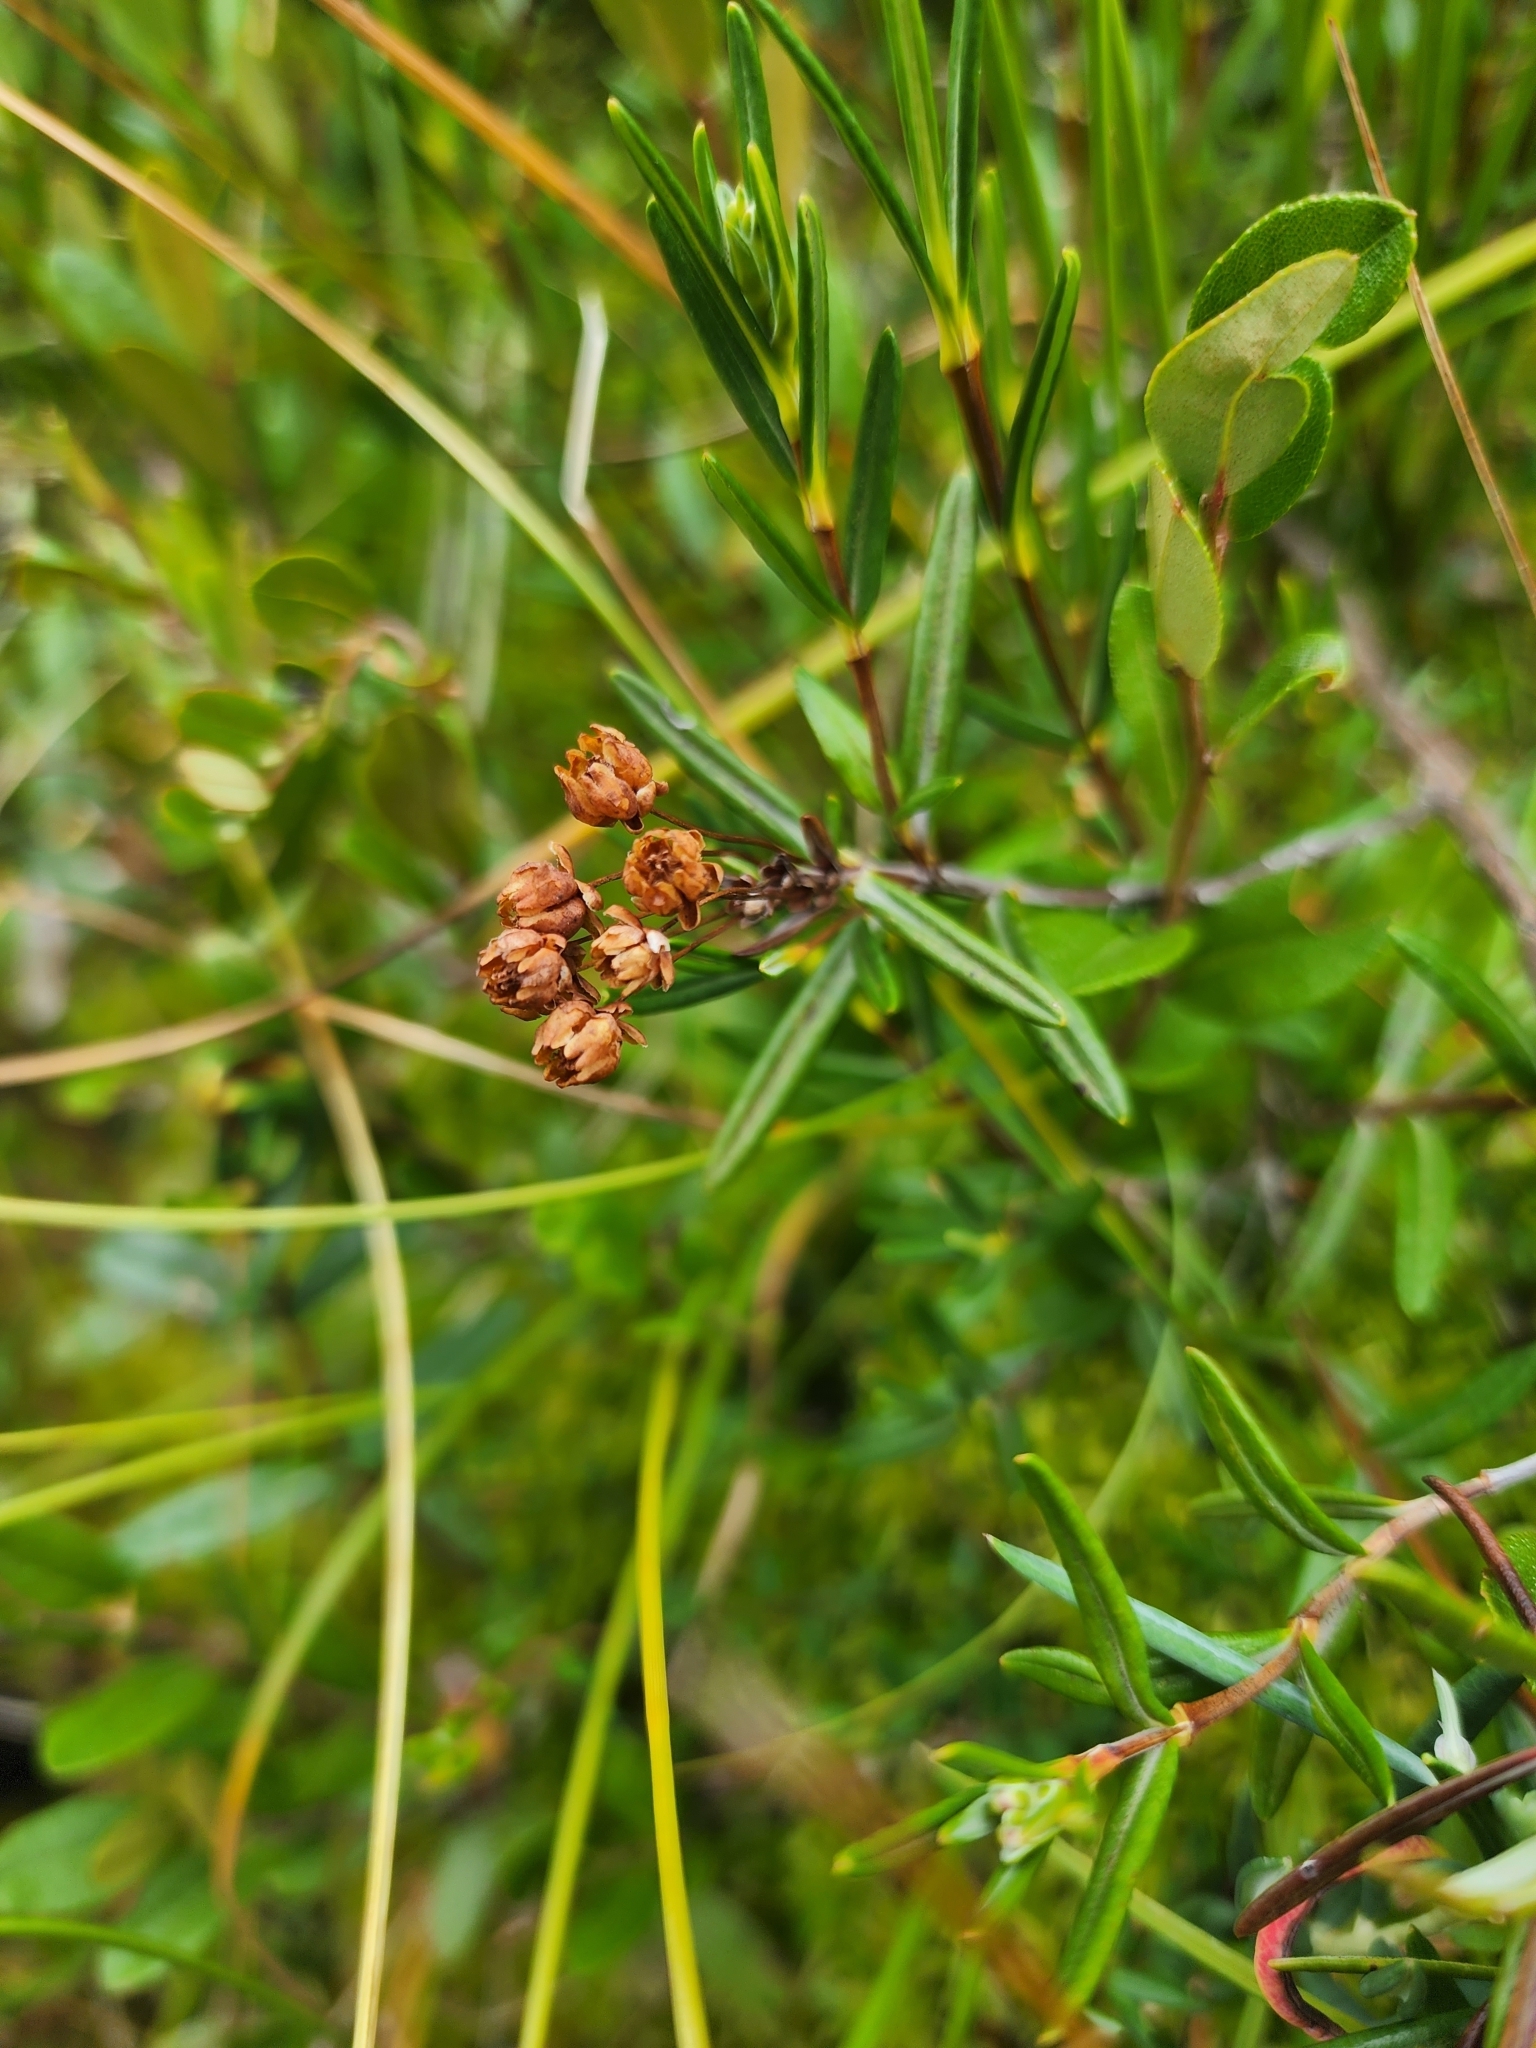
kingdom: Plantae
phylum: Tracheophyta
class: Magnoliopsida
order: Ericales
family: Ericaceae
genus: Kalmia
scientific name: Kalmia polifolia
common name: Bog-laurel
